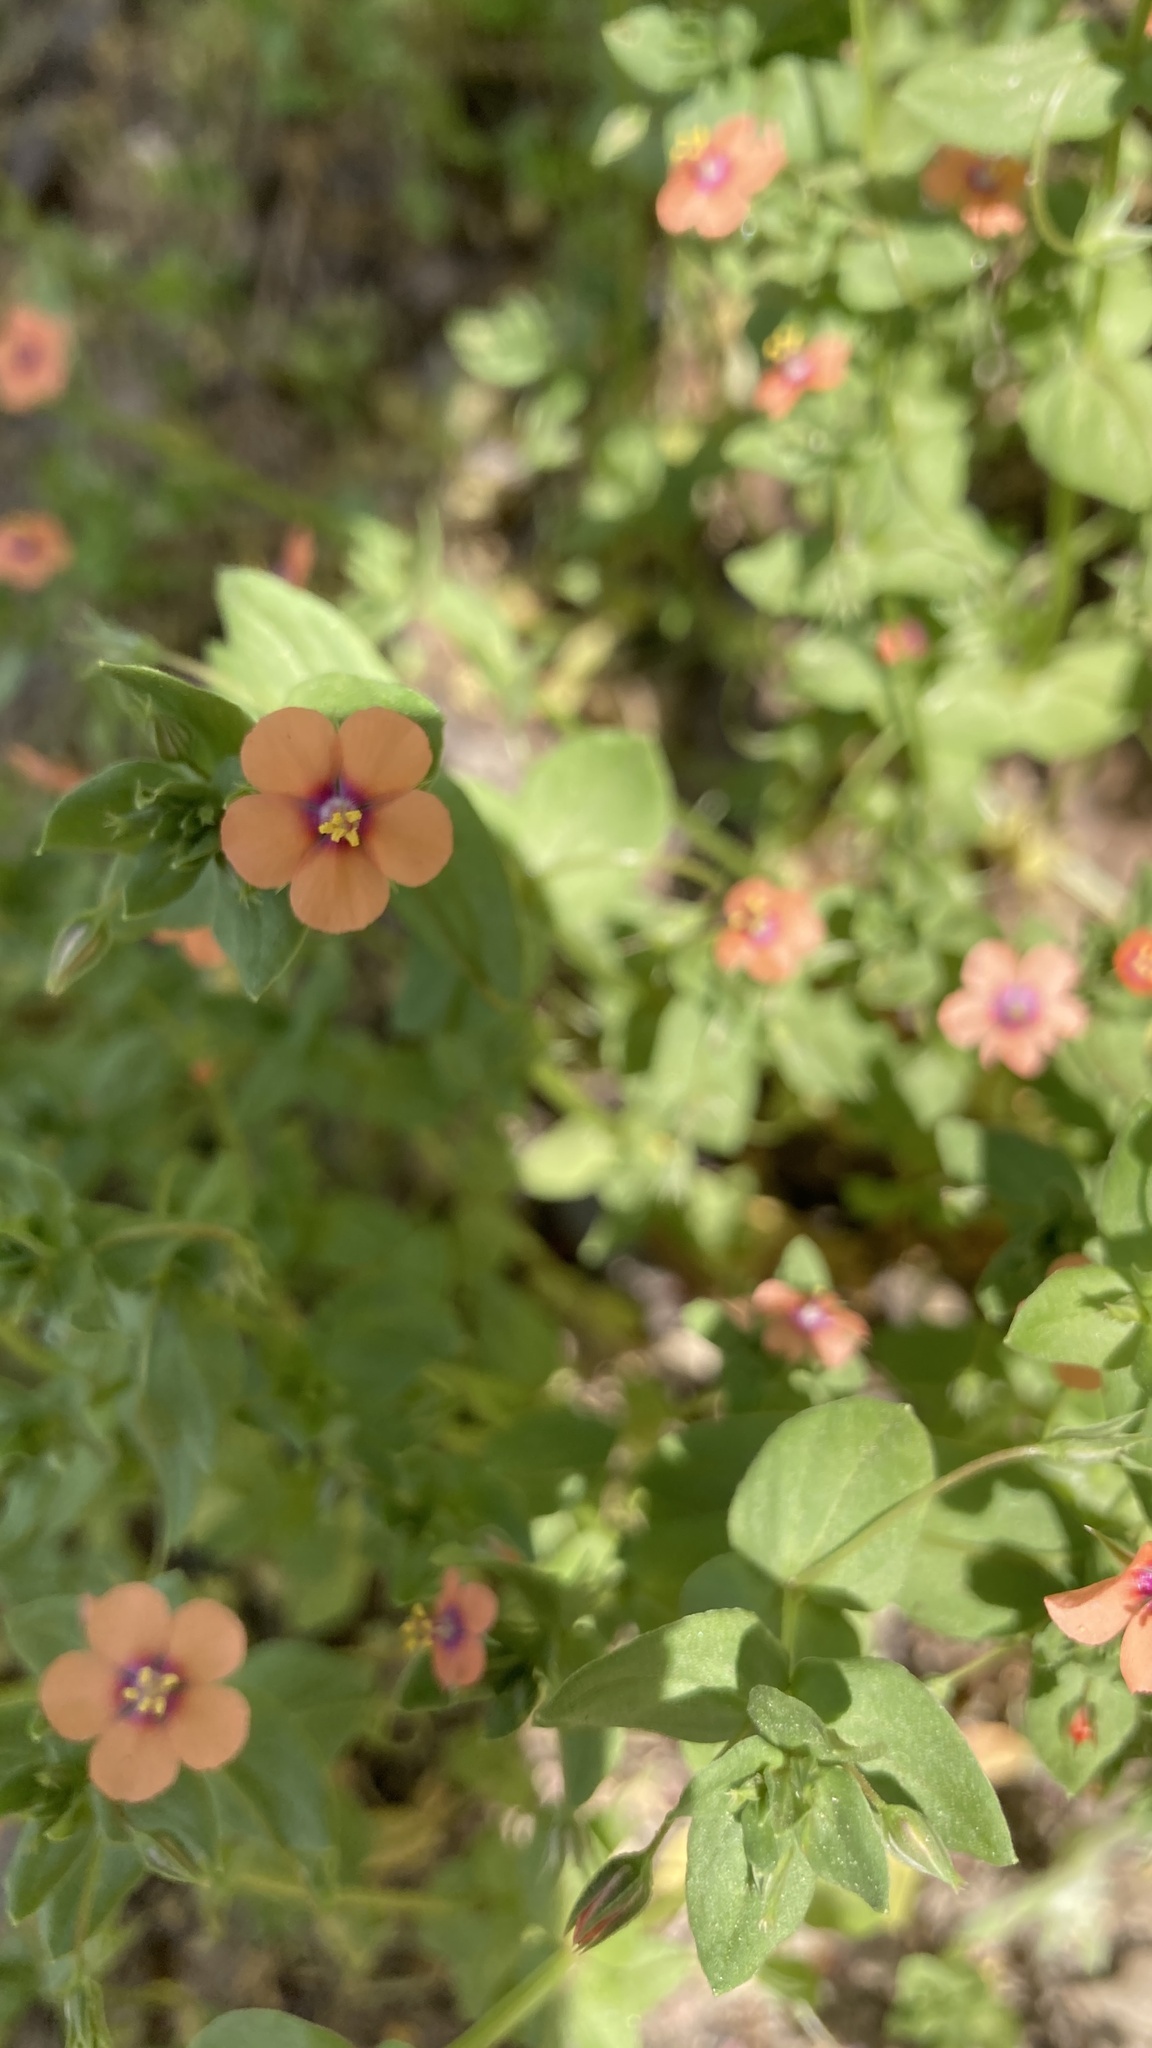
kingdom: Plantae
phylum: Tracheophyta
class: Magnoliopsida
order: Ericales
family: Primulaceae
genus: Lysimachia
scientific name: Lysimachia arvensis
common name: Scarlet pimpernel
